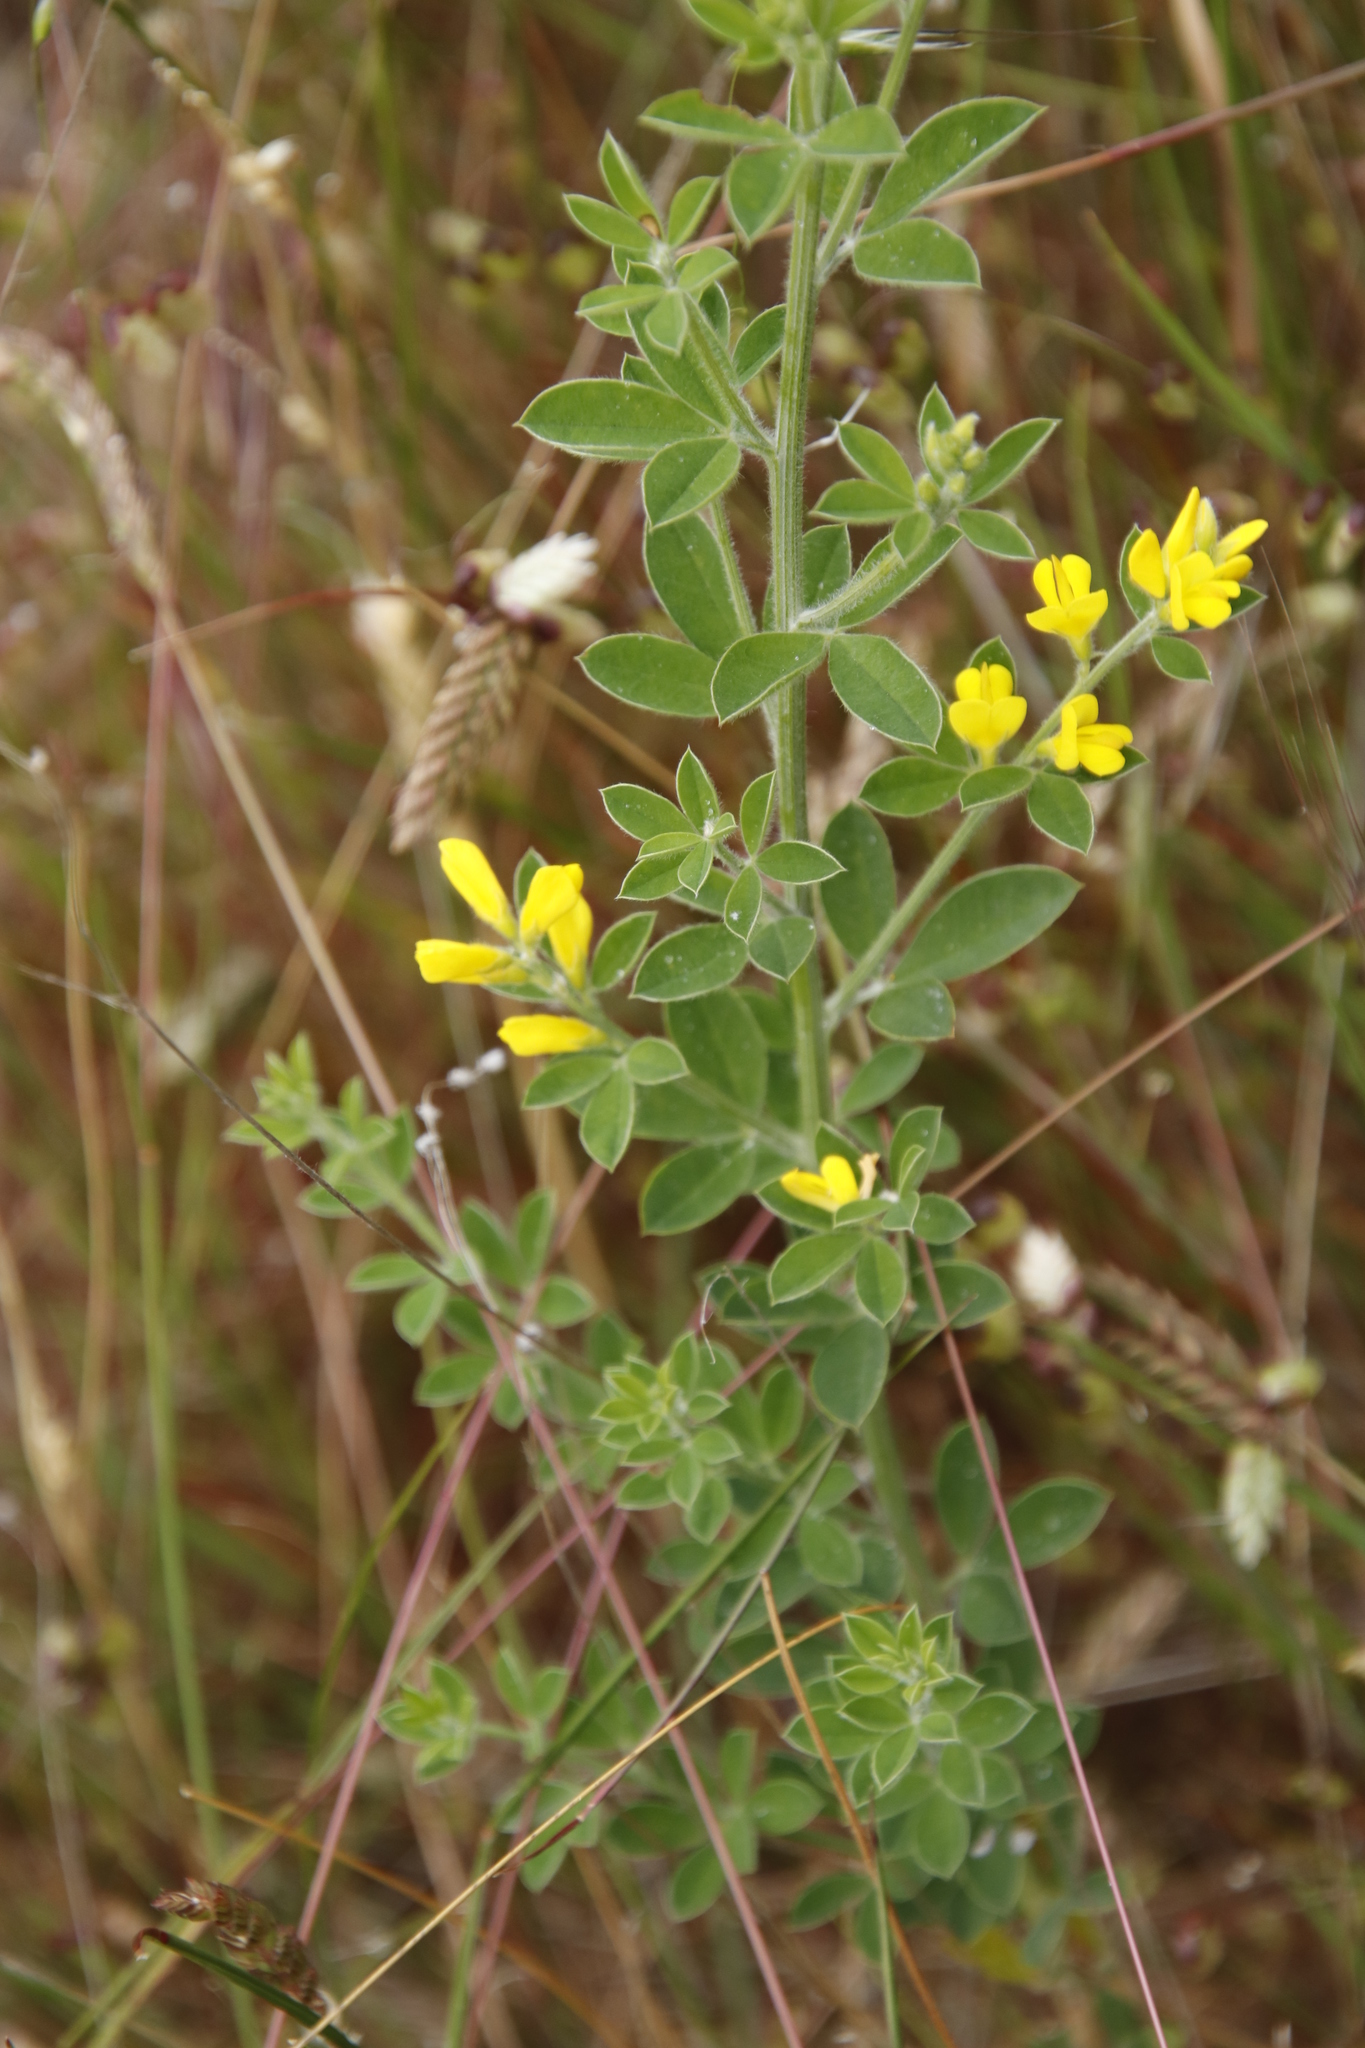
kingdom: Plantae
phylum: Tracheophyta
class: Magnoliopsida
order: Fabales
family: Fabaceae
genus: Genista
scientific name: Genista monspessulana
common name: Montpellier broom
